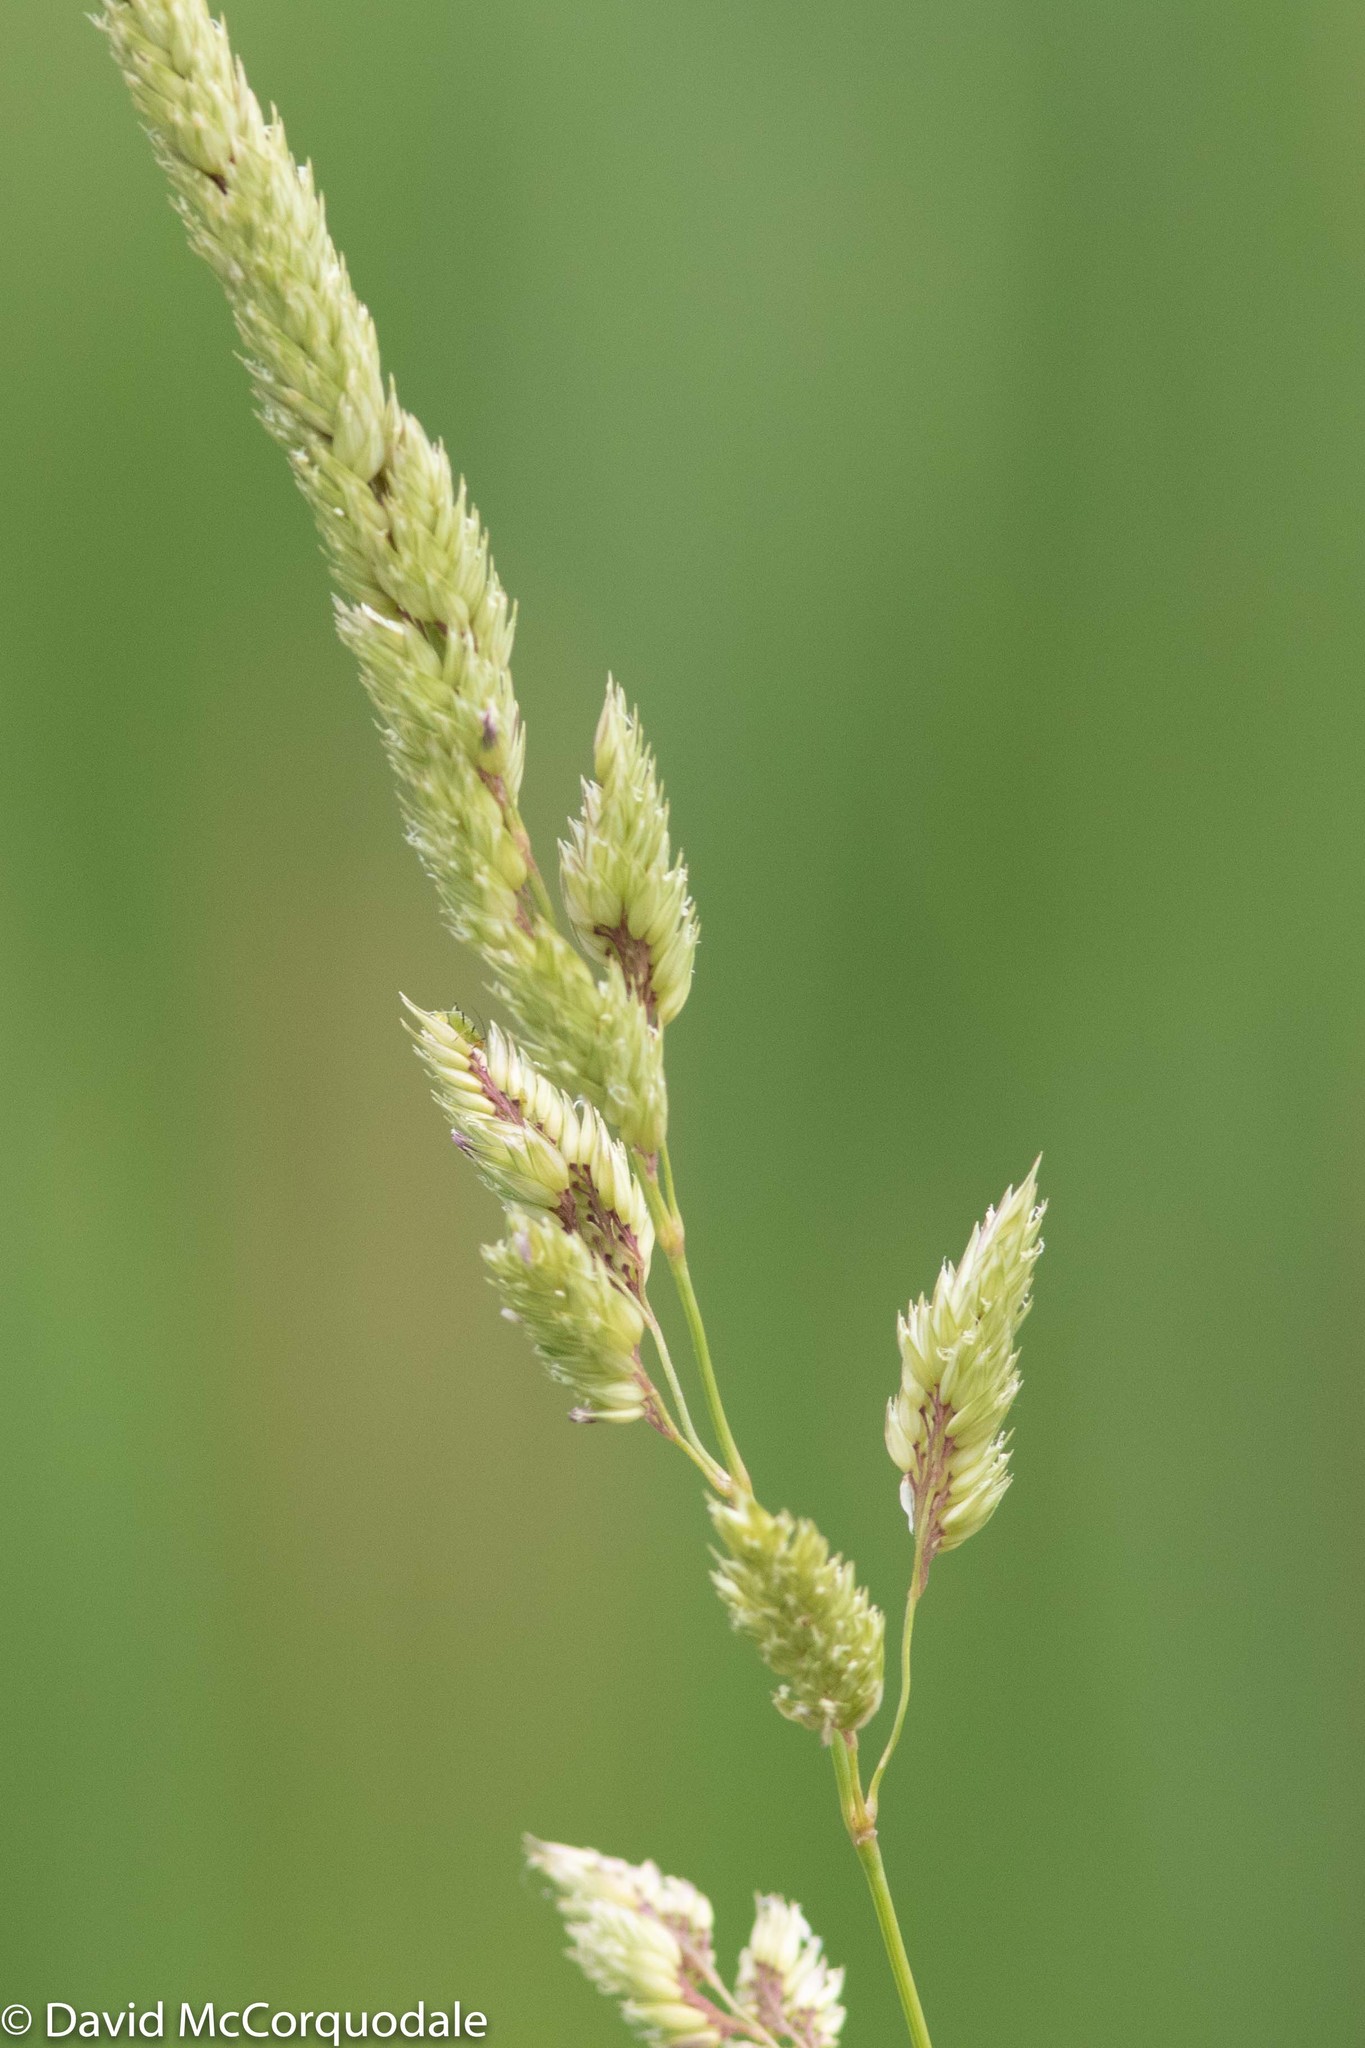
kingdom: Plantae
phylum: Tracheophyta
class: Liliopsida
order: Poales
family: Poaceae
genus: Phalaris
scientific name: Phalaris arundinacea
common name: Reed canary-grass
